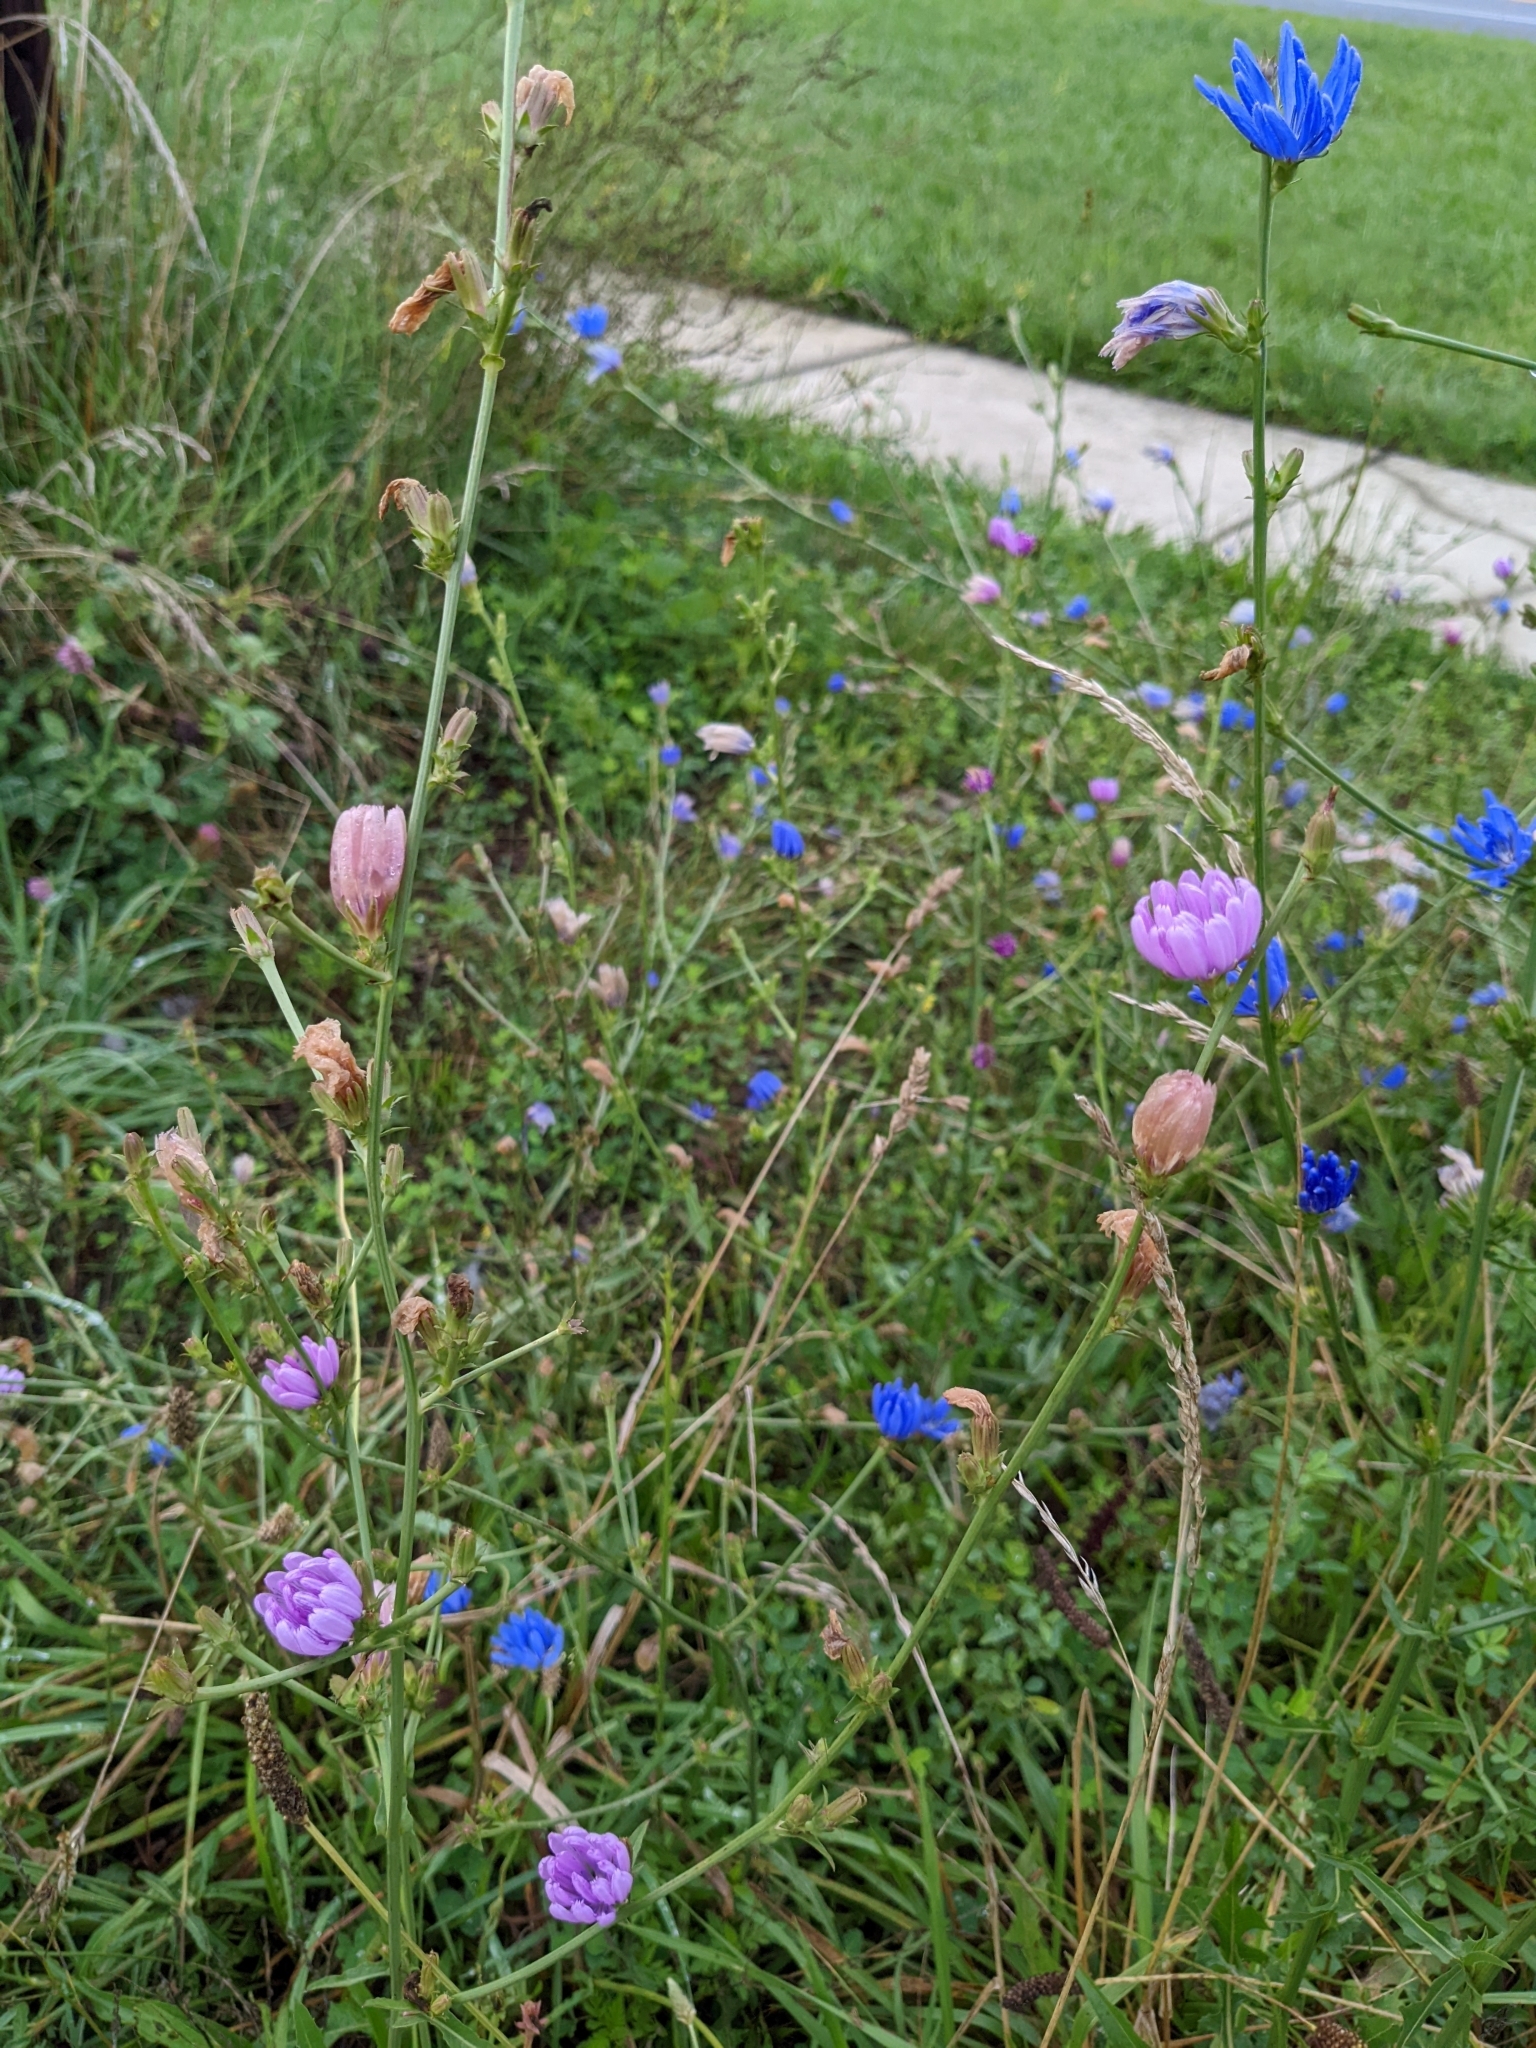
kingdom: Plantae
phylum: Tracheophyta
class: Magnoliopsida
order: Asterales
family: Asteraceae
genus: Cichorium
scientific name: Cichorium intybus
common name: Chicory
